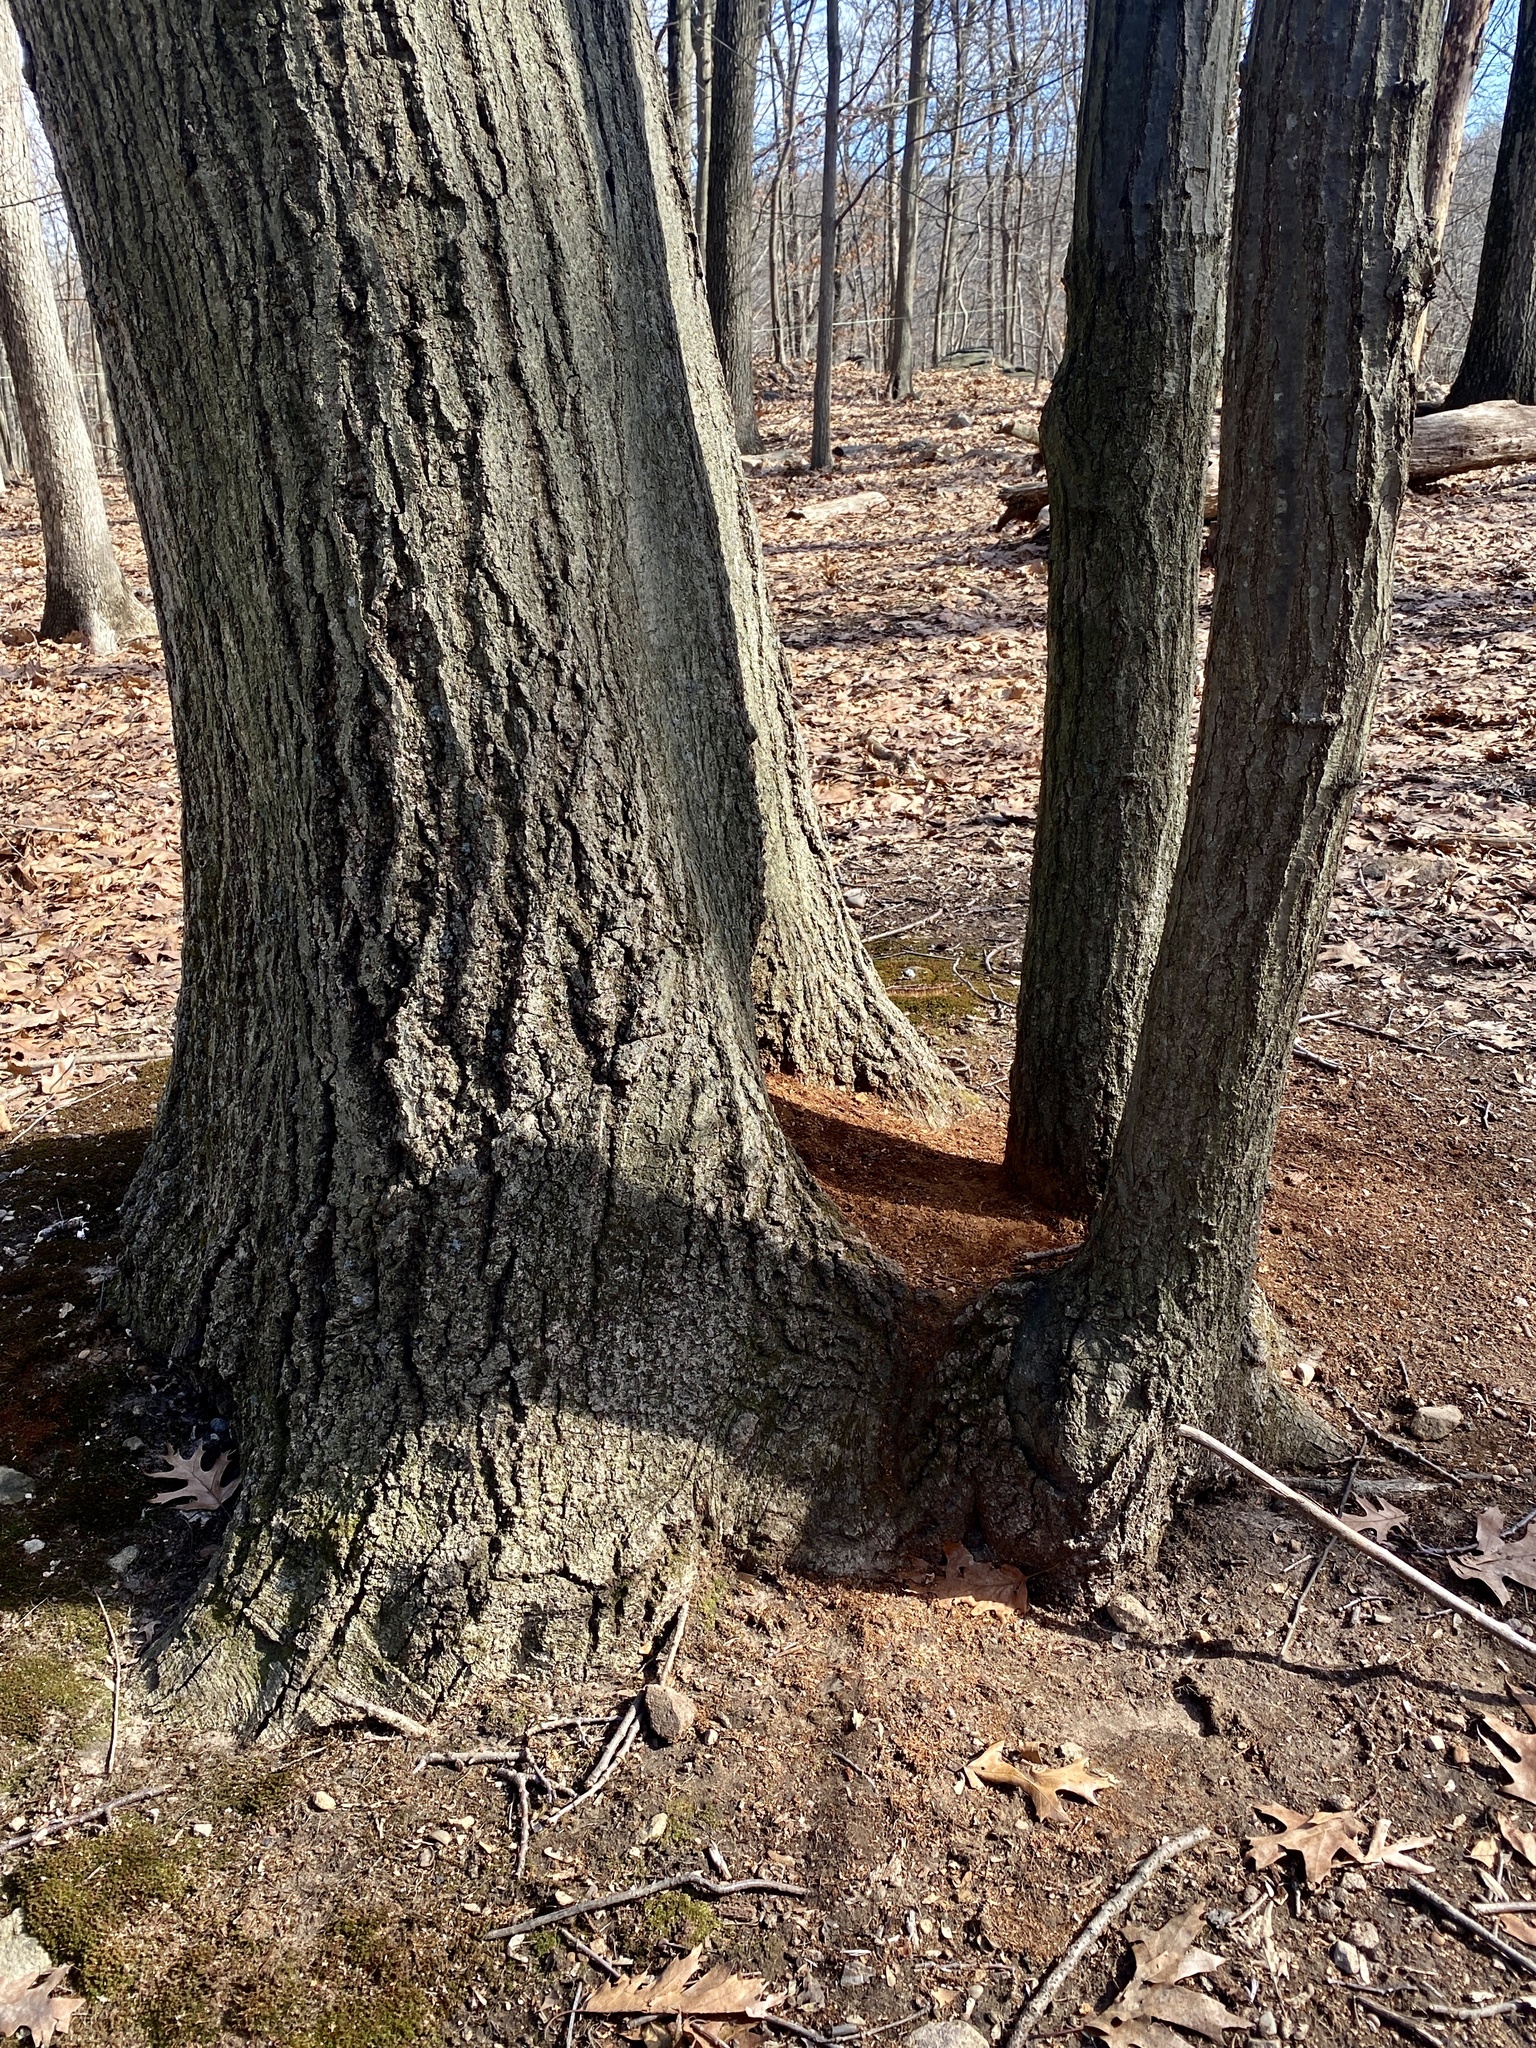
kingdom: Plantae
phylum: Tracheophyta
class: Magnoliopsida
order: Fagales
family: Fagaceae
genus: Quercus
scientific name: Quercus rubra
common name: Red oak
